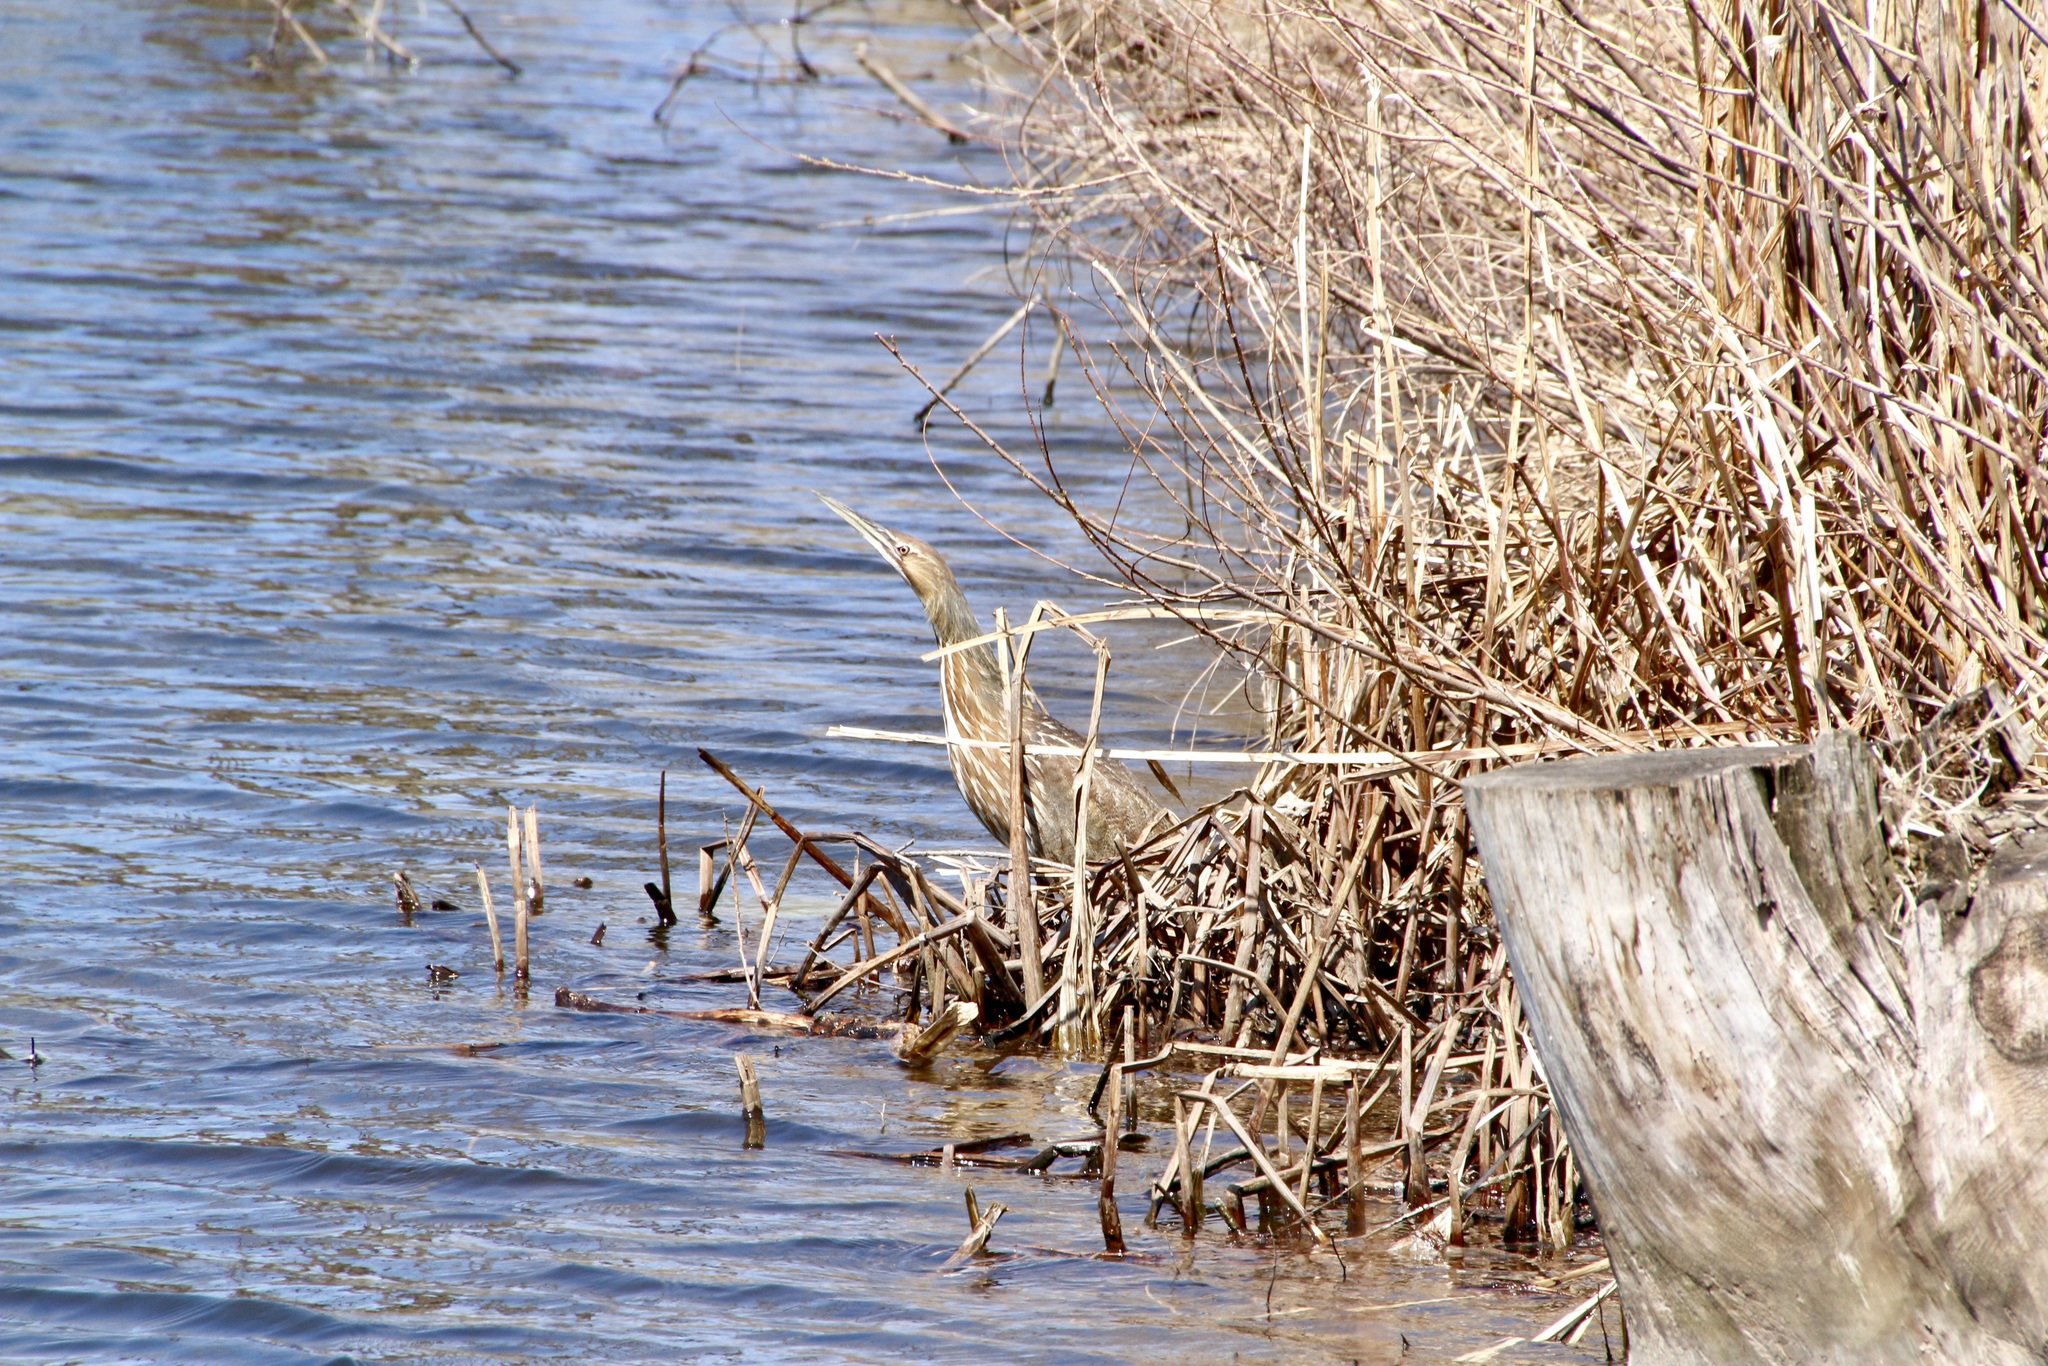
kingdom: Animalia
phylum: Chordata
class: Aves
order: Pelecaniformes
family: Ardeidae
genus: Botaurus
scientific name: Botaurus lentiginosus
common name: American bittern
